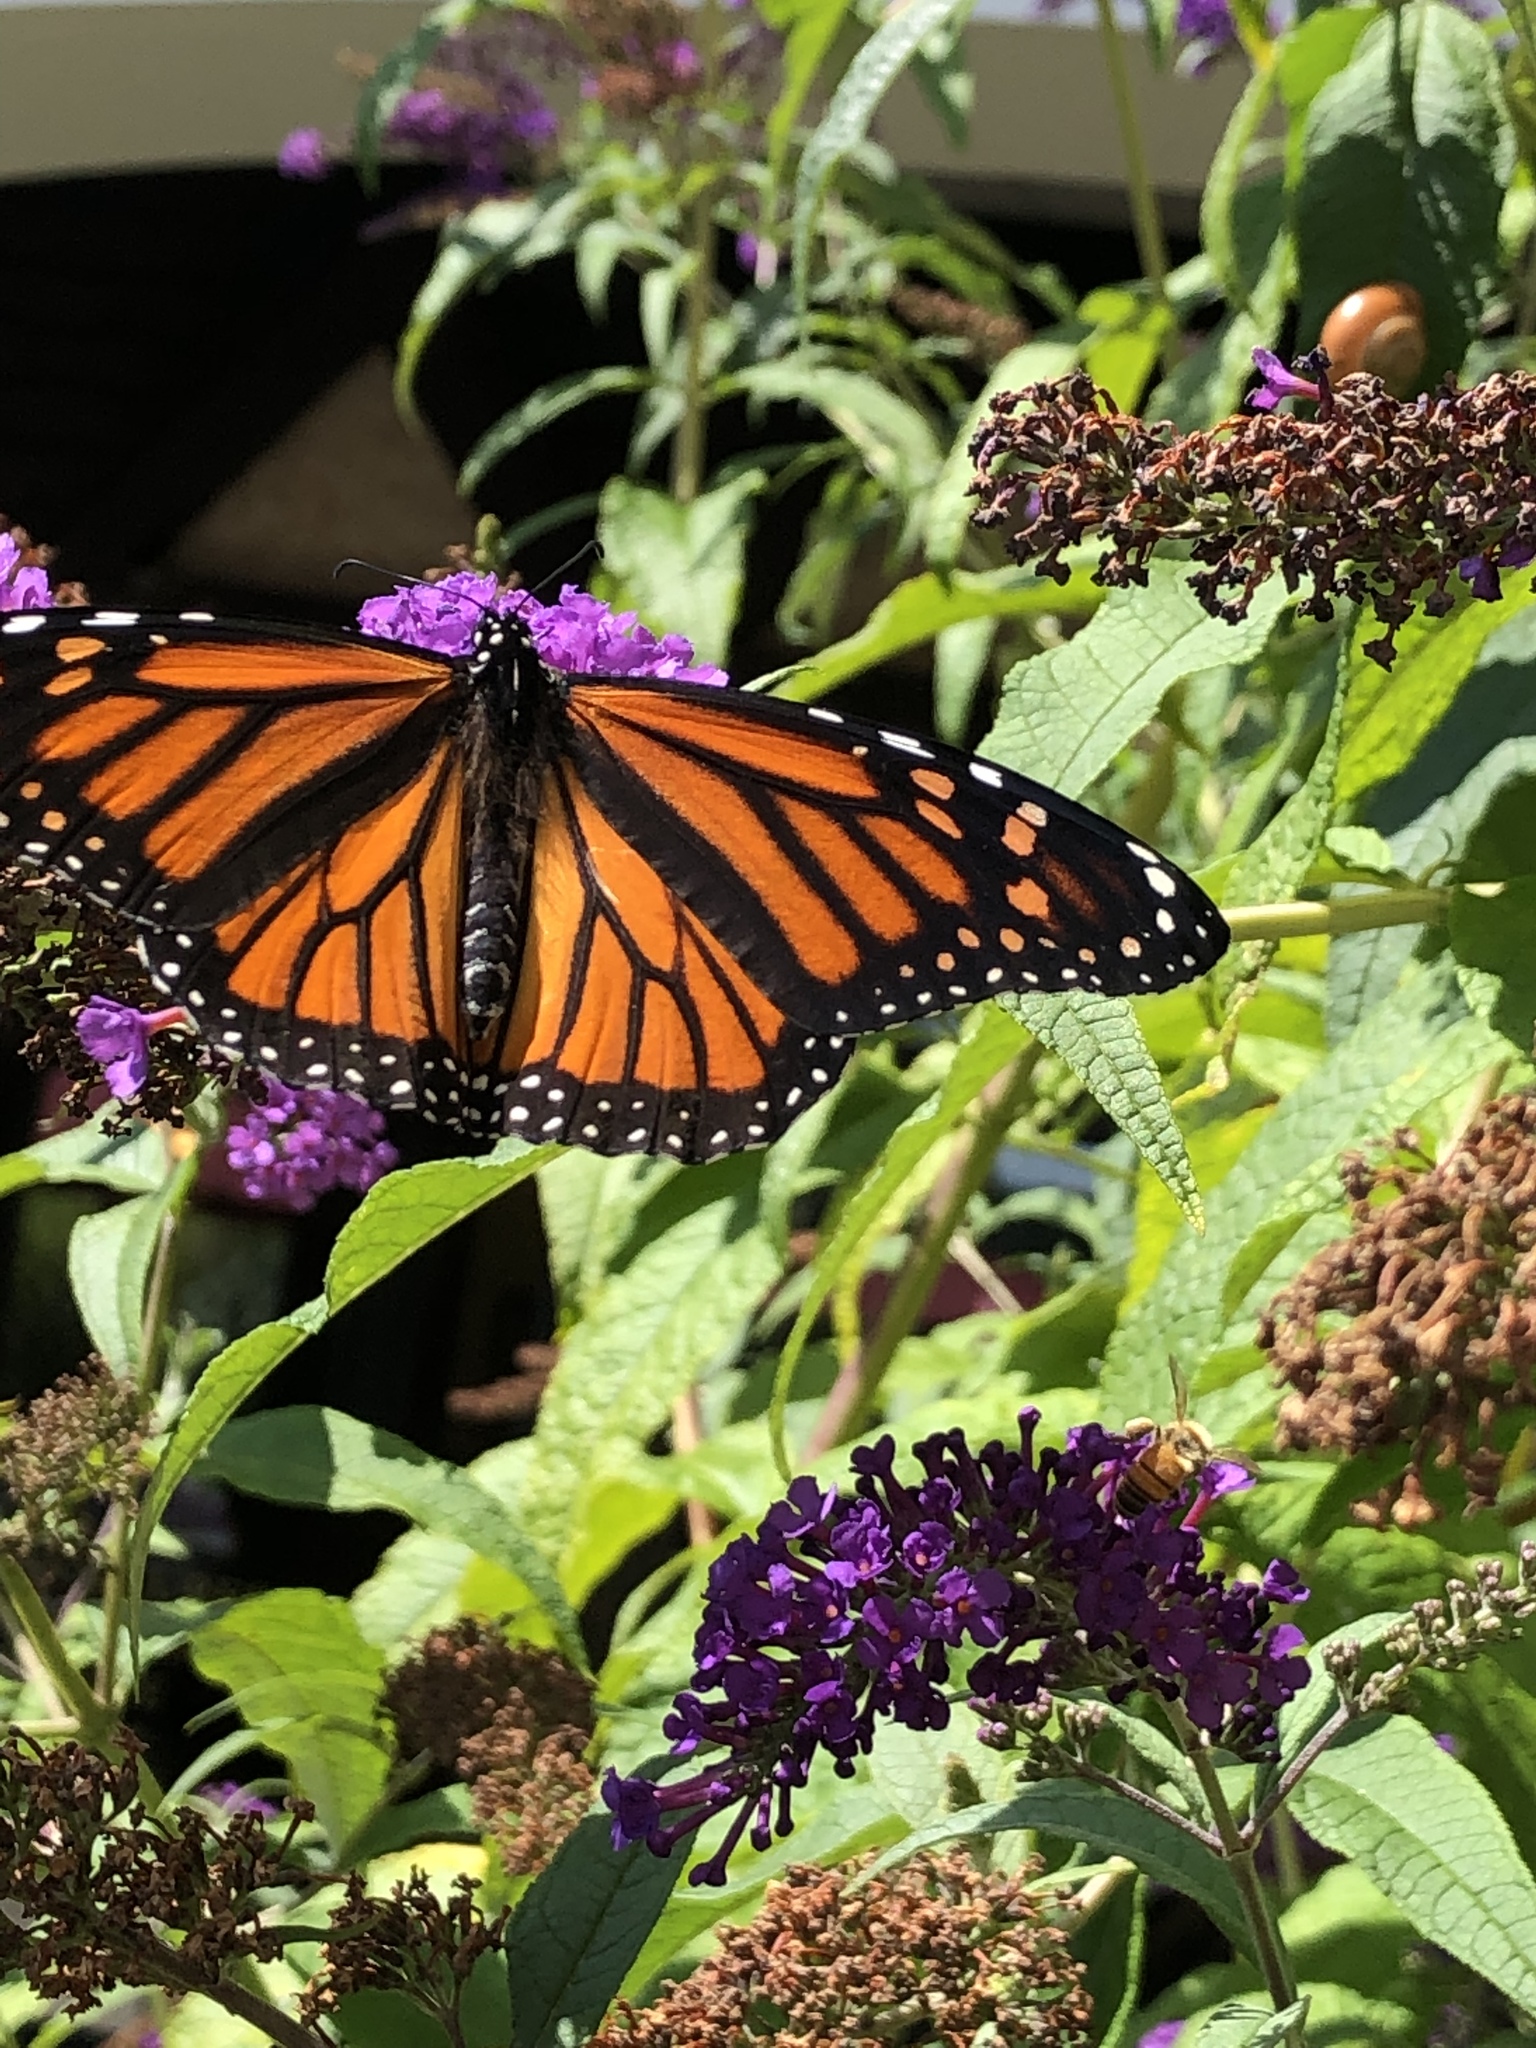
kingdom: Animalia
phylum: Arthropoda
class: Insecta
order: Lepidoptera
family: Nymphalidae
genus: Danaus
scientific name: Danaus plexippus
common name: Monarch
